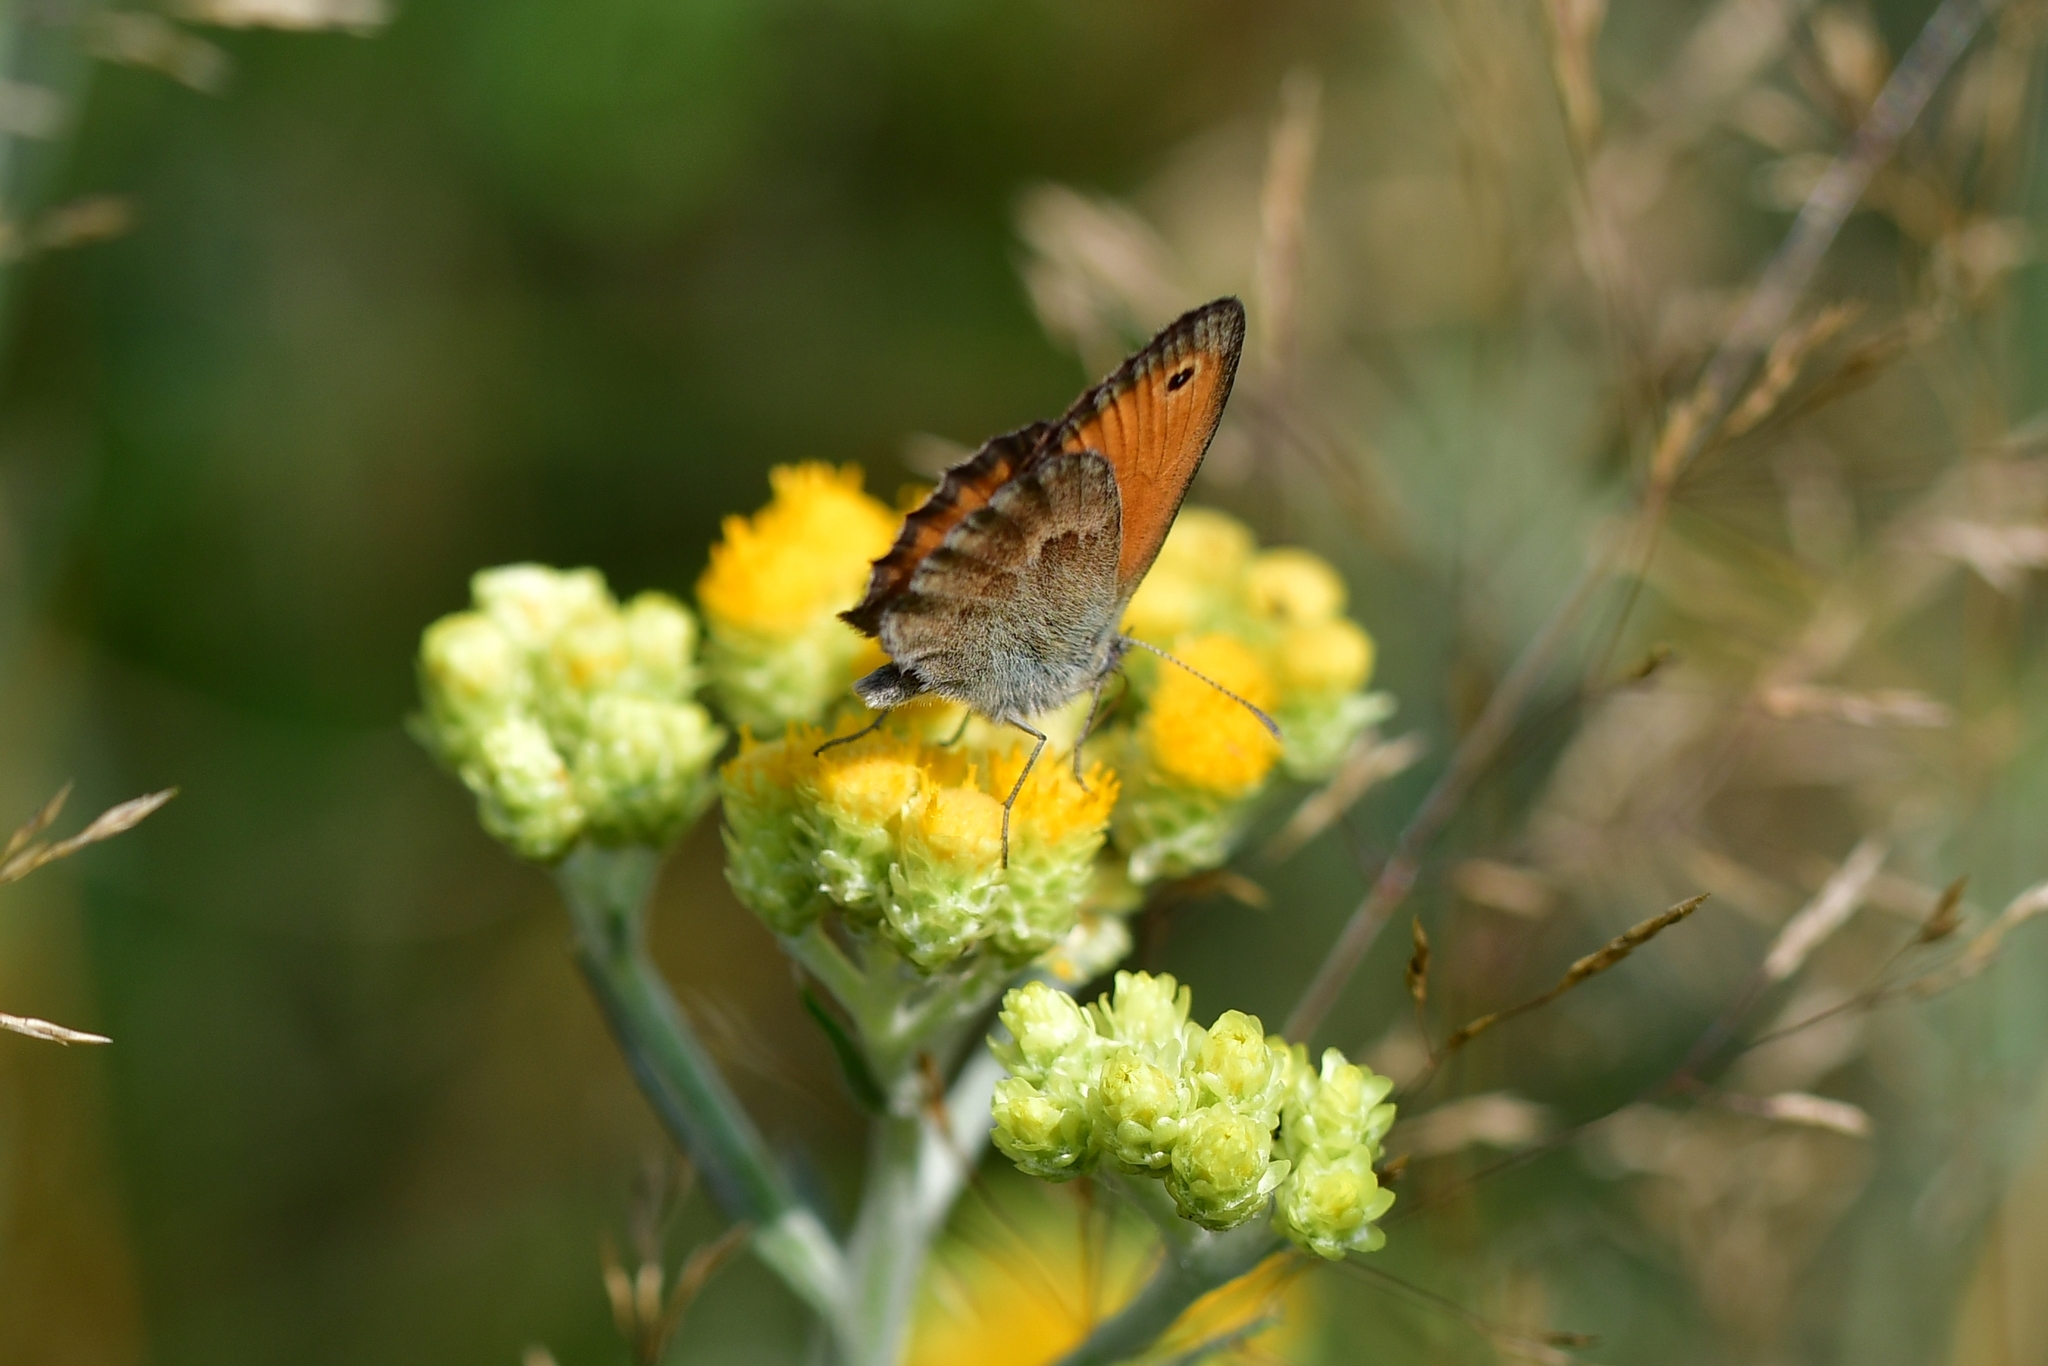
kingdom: Animalia
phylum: Arthropoda
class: Insecta
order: Lepidoptera
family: Nymphalidae
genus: Coenonympha
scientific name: Coenonympha pamphilus
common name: Small heath
